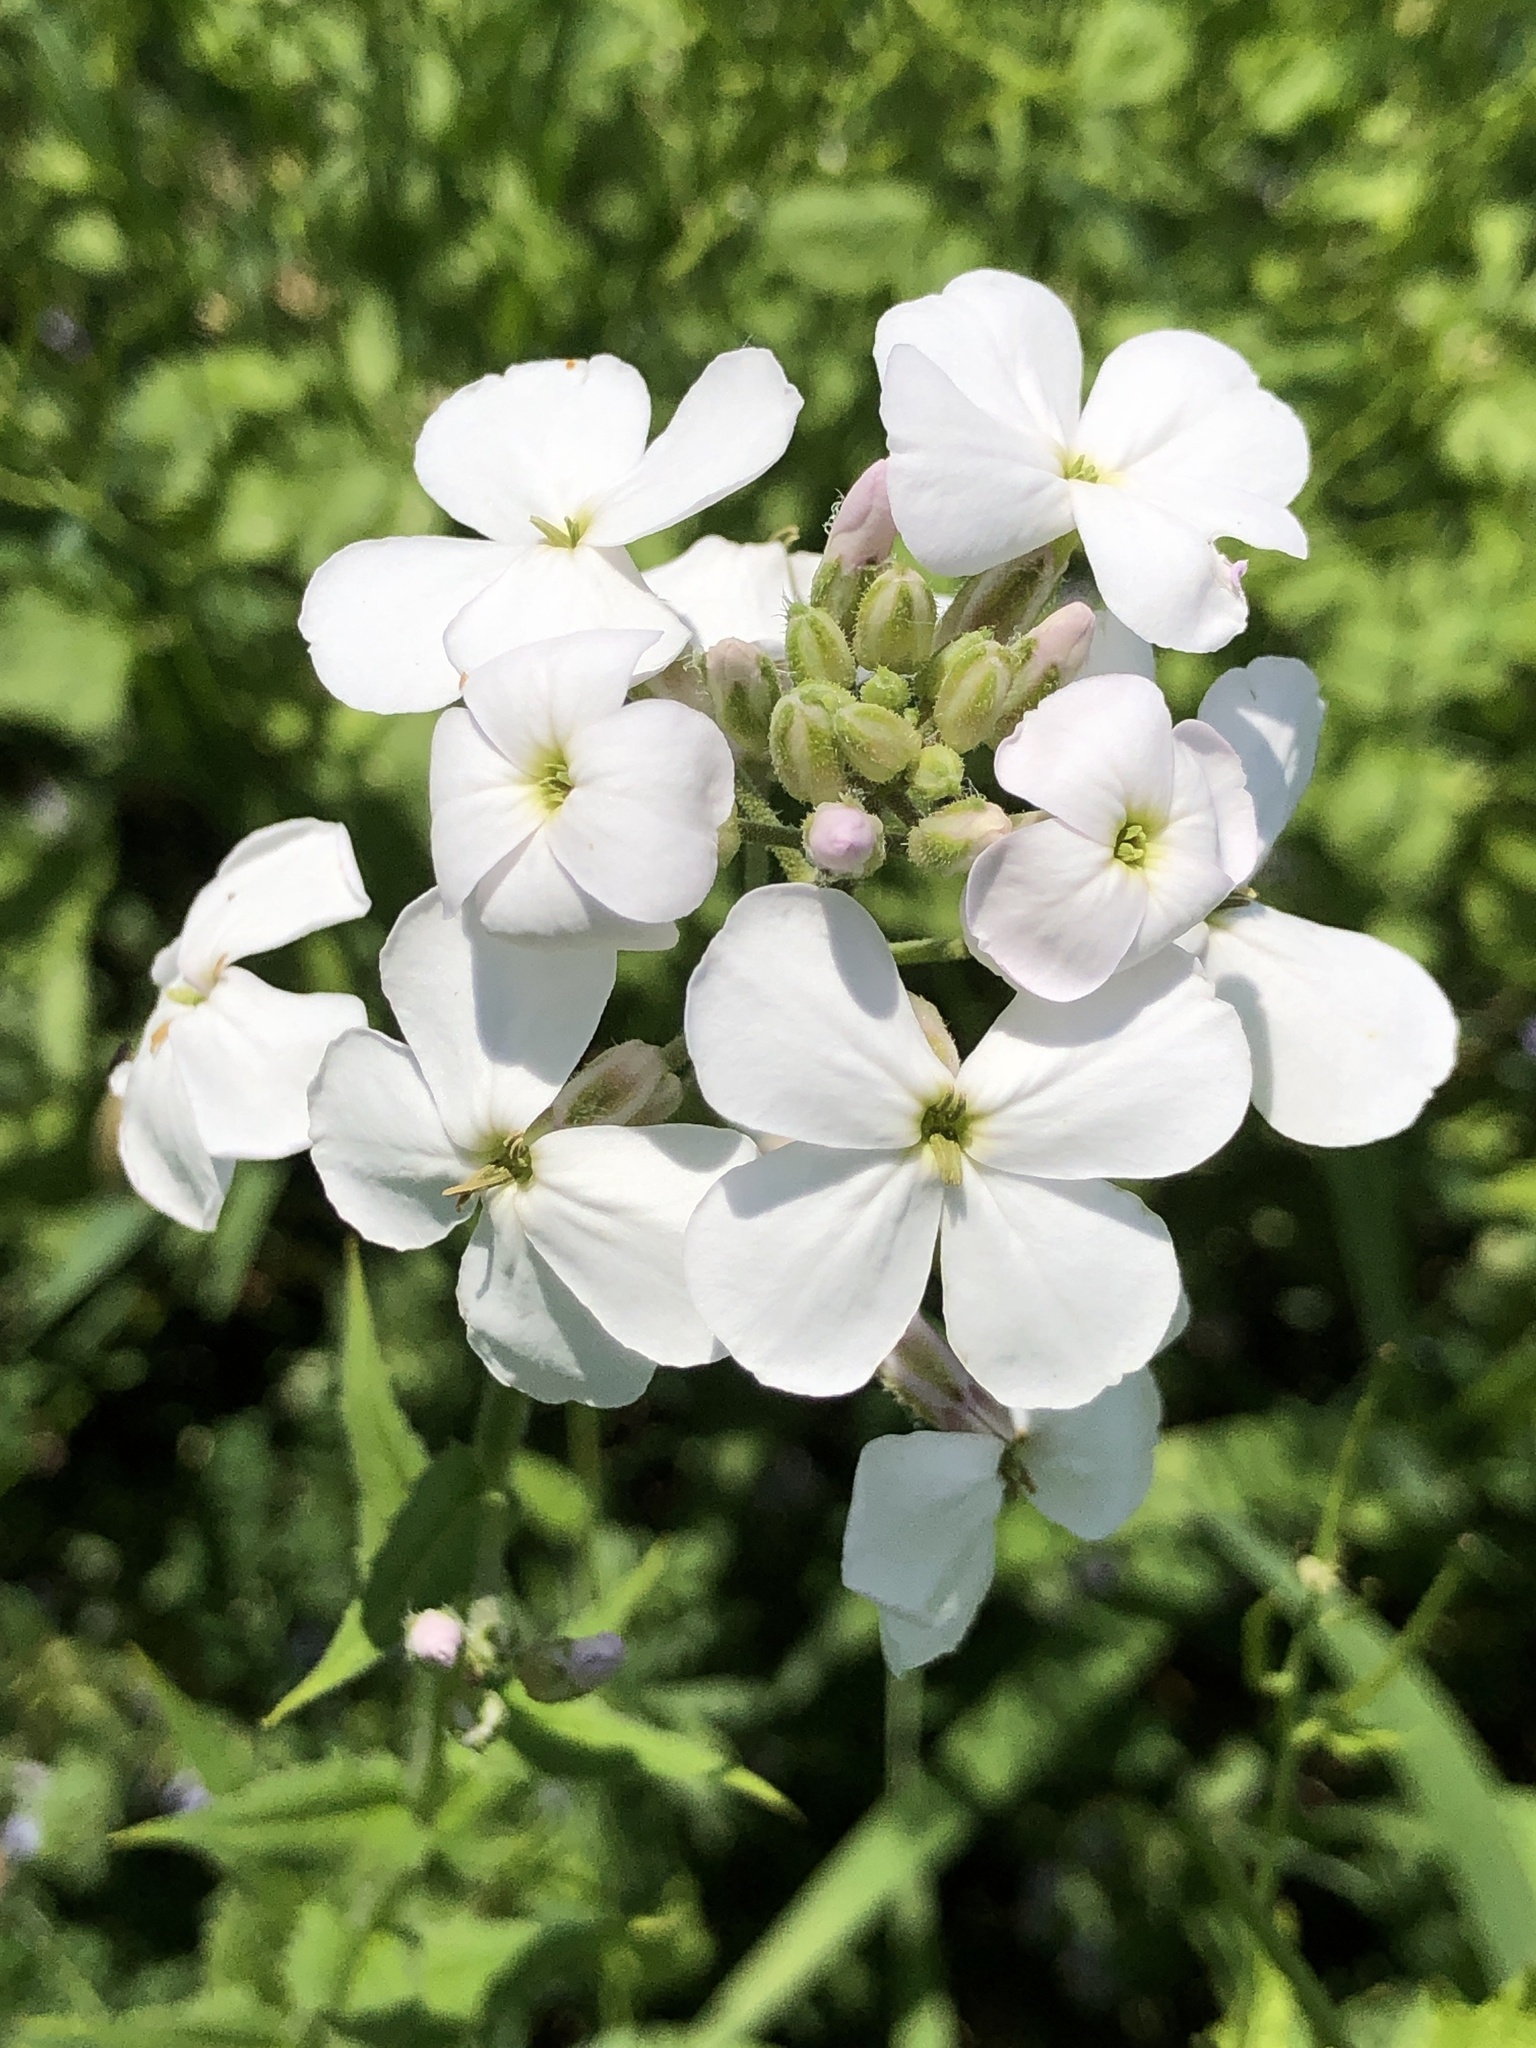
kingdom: Plantae
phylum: Tracheophyta
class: Magnoliopsida
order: Brassicales
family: Brassicaceae
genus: Hesperis
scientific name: Hesperis matronalis
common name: Dame's-violet
